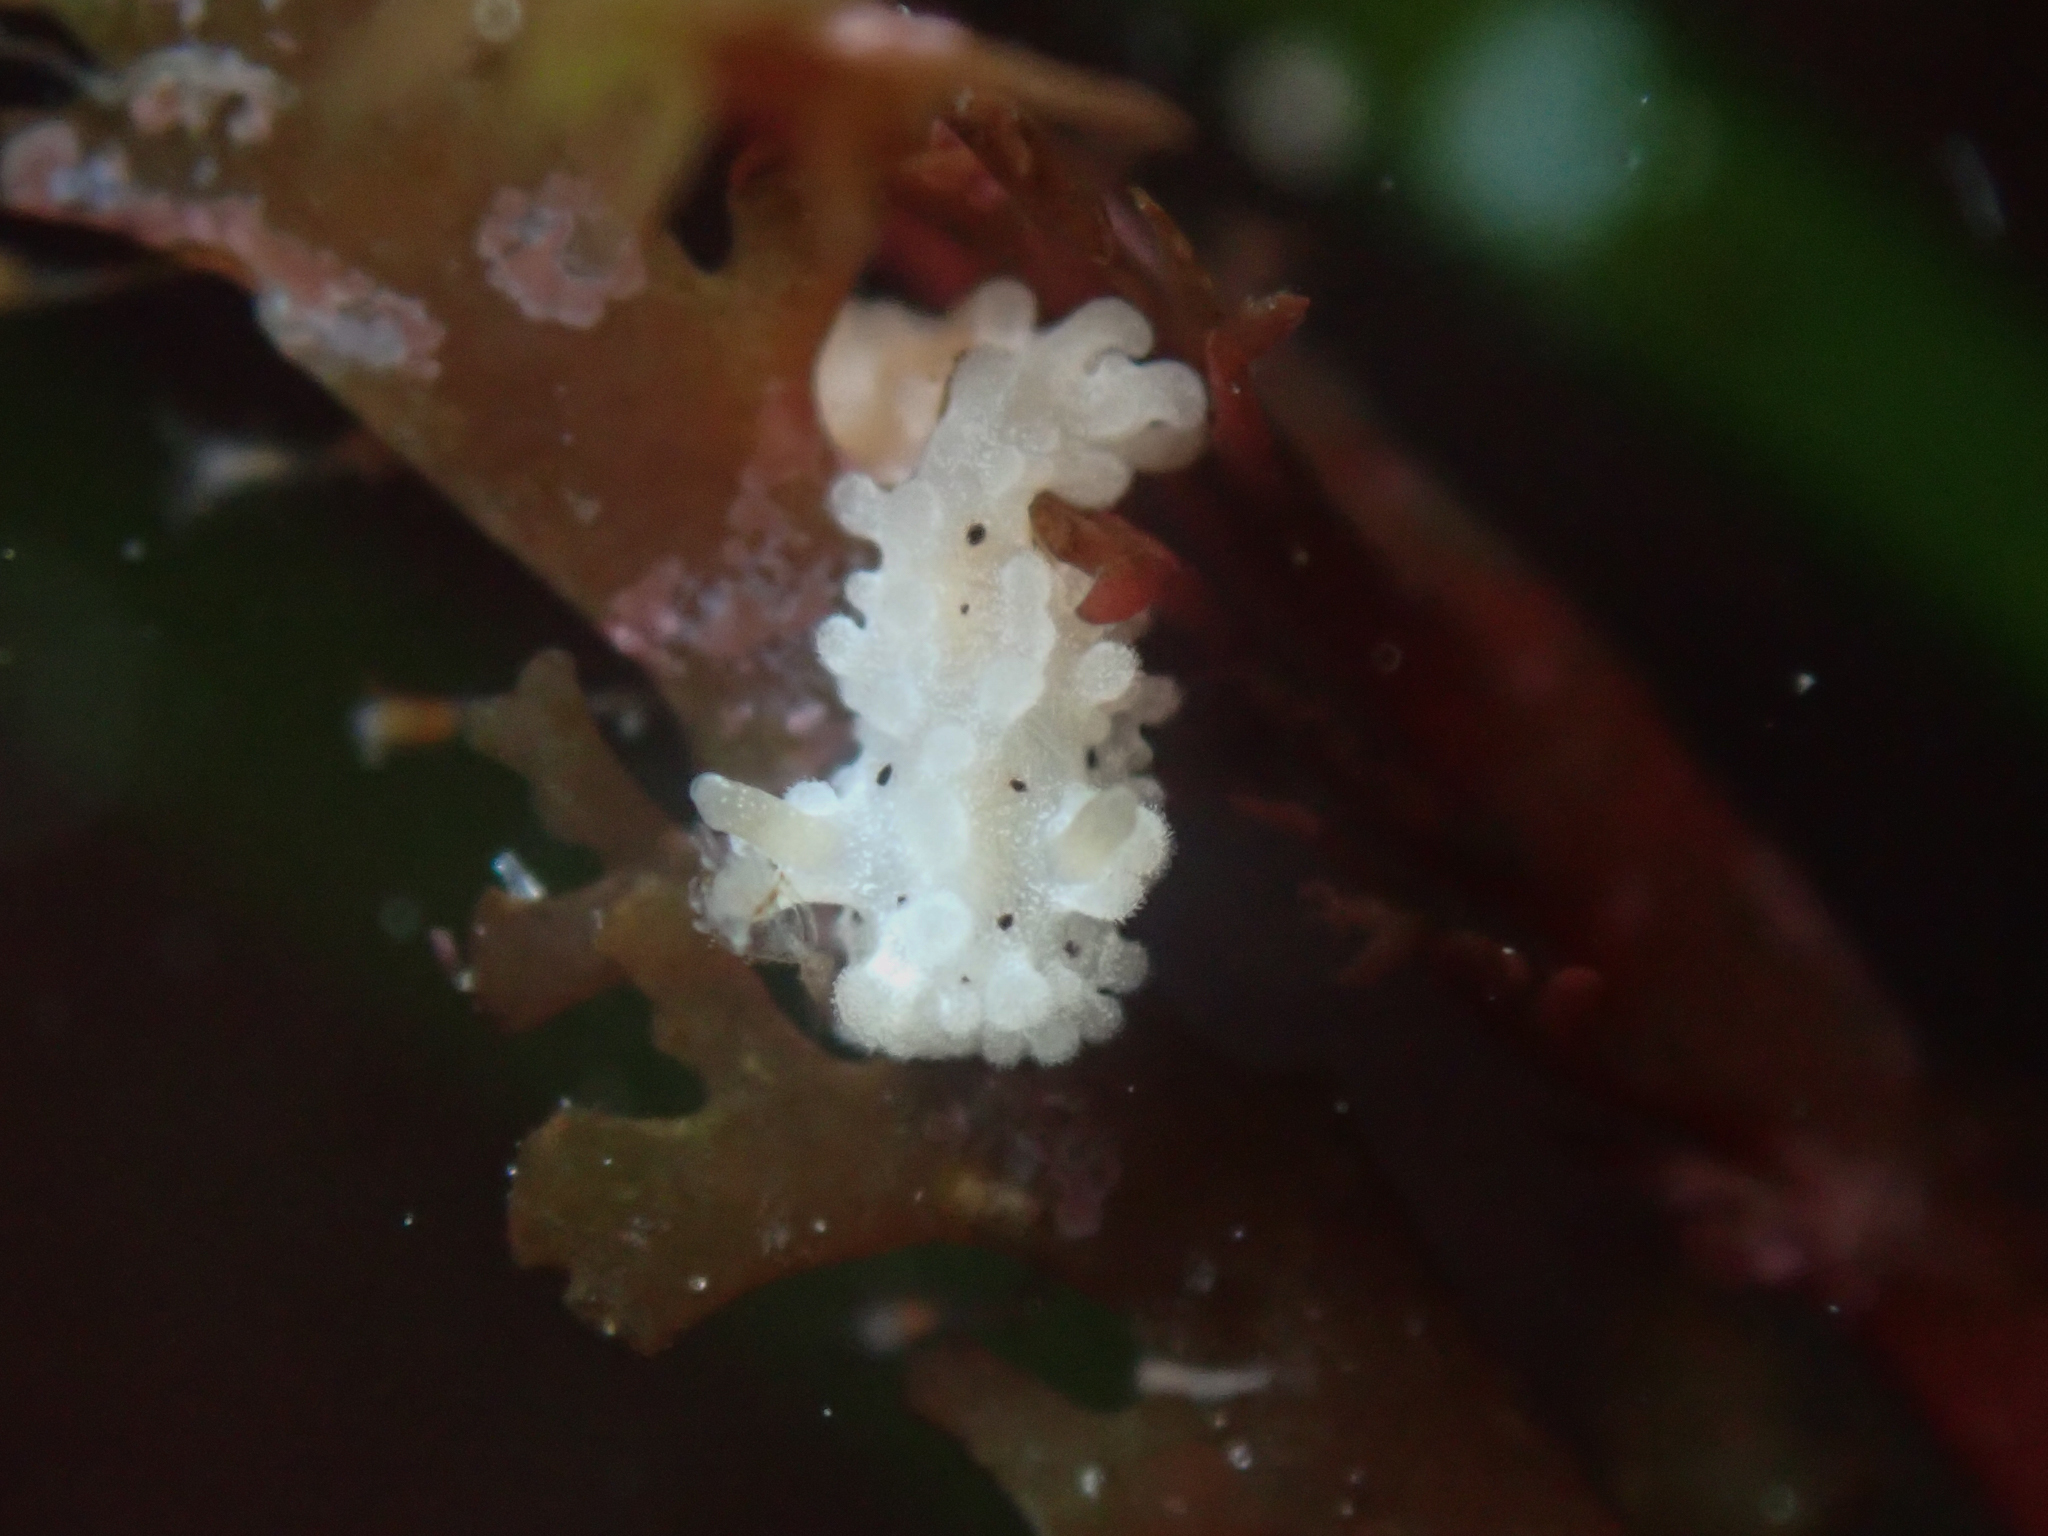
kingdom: Animalia
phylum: Mollusca
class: Gastropoda
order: Nudibranchia
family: Aegiridae
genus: Aegires
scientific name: Aegires albopunctatus
